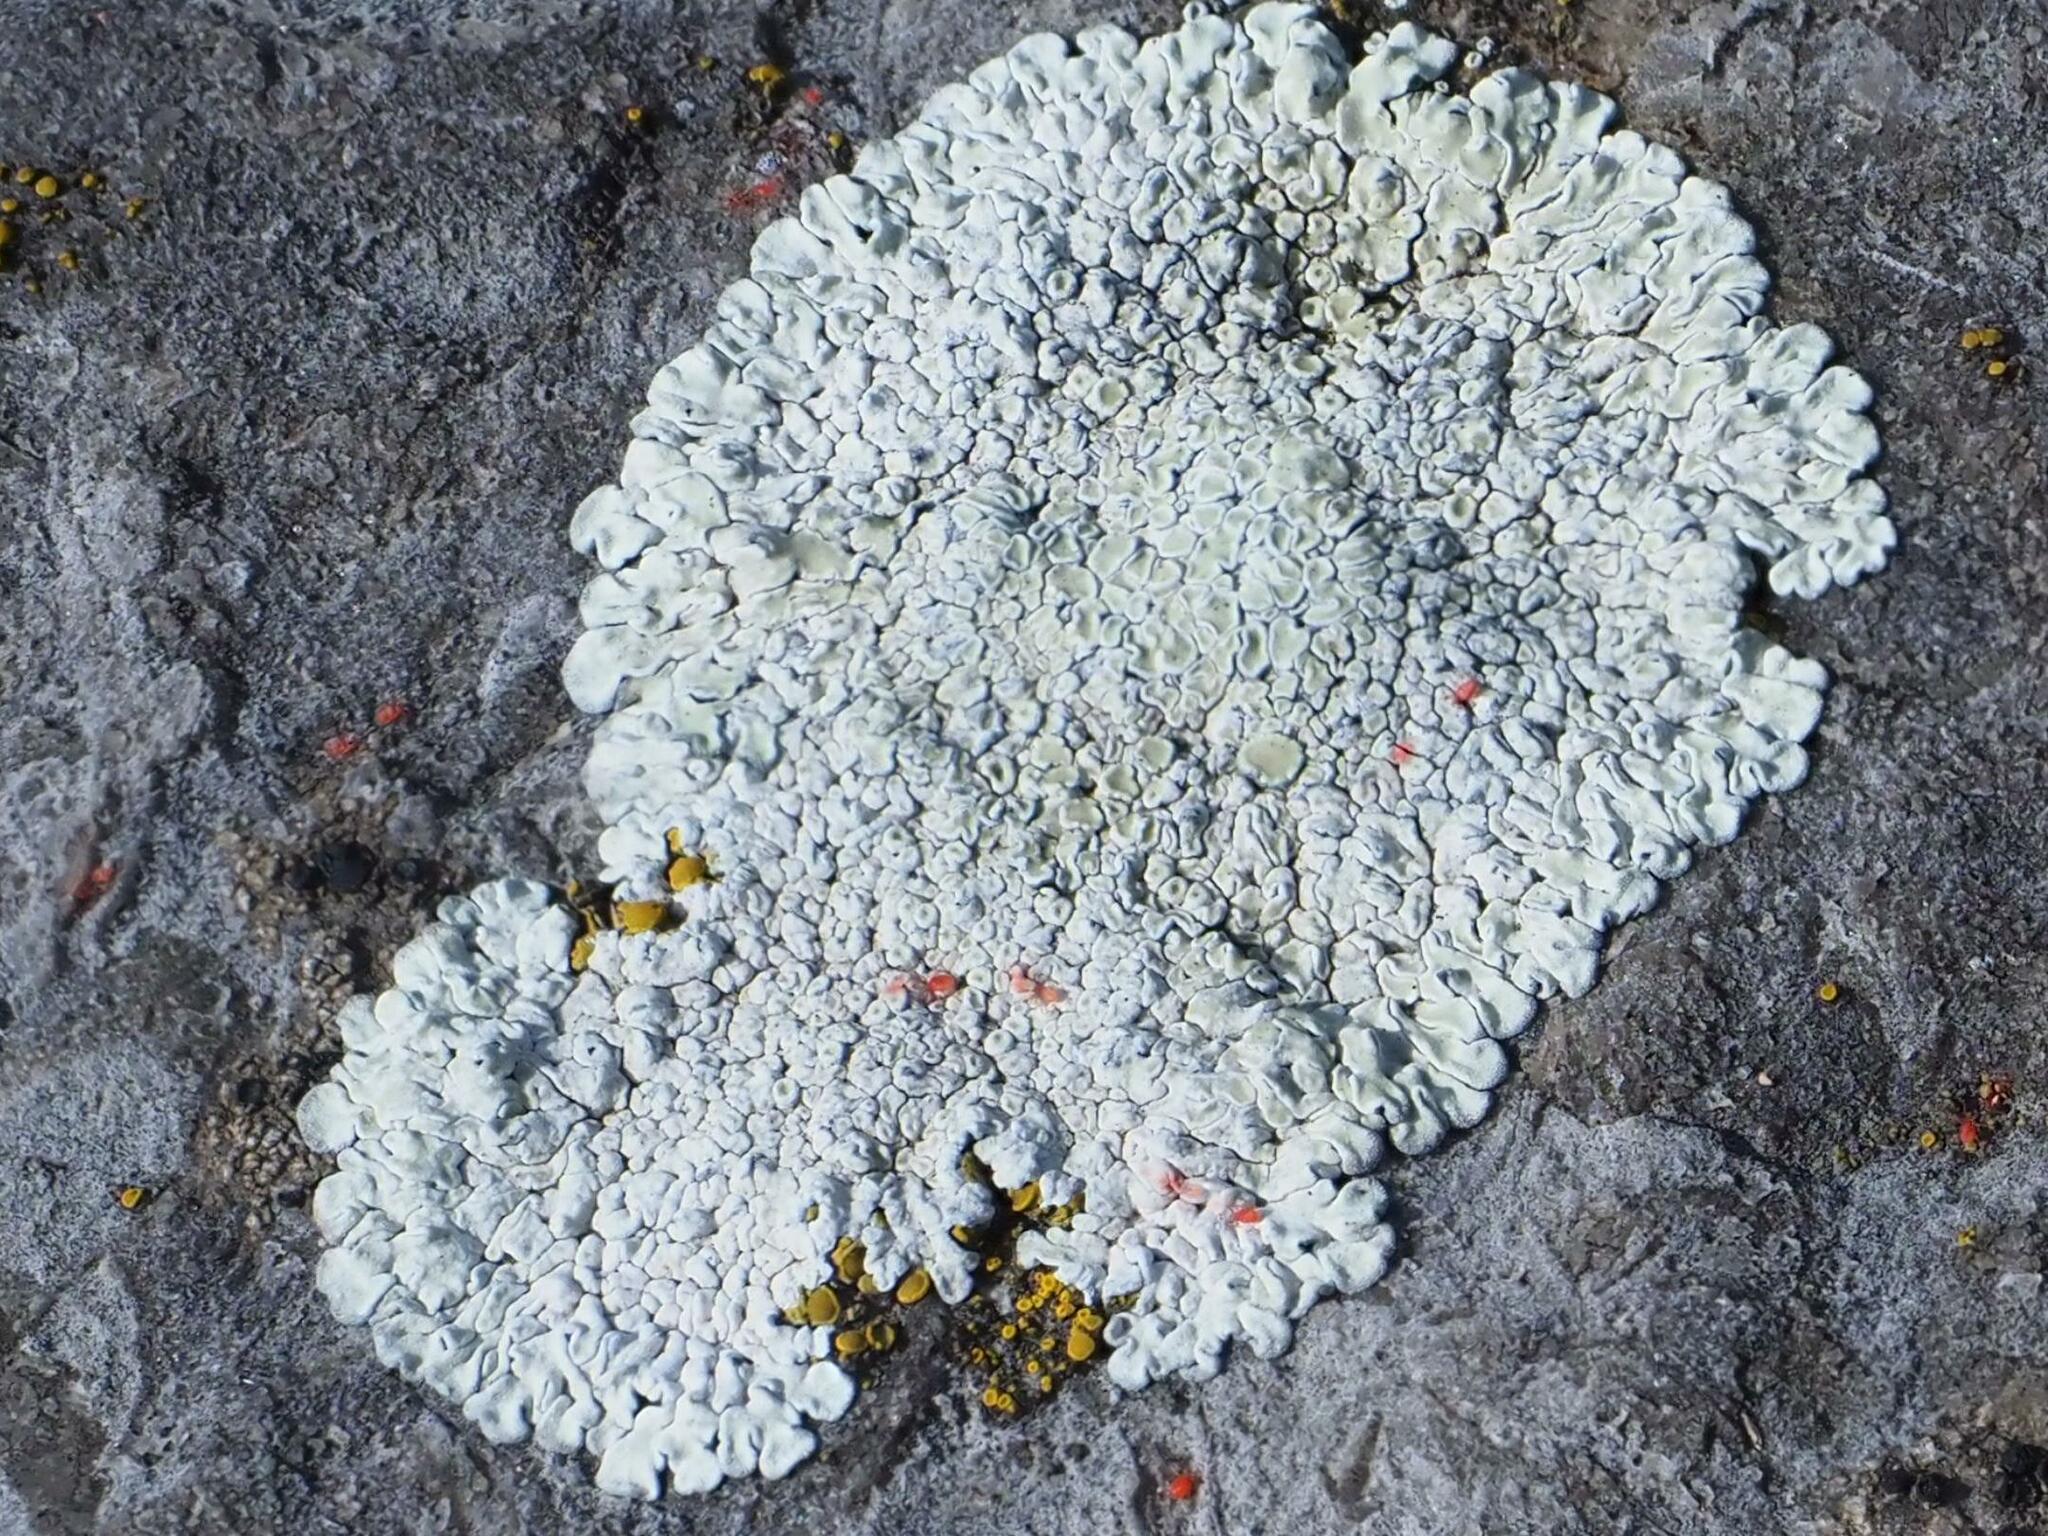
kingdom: Fungi
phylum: Ascomycota
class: Lecanoromycetes
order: Lecanorales
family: Lecanoraceae
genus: Protoparmeliopsis
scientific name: Protoparmeliopsis muralis
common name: Stonewall rim lichen
